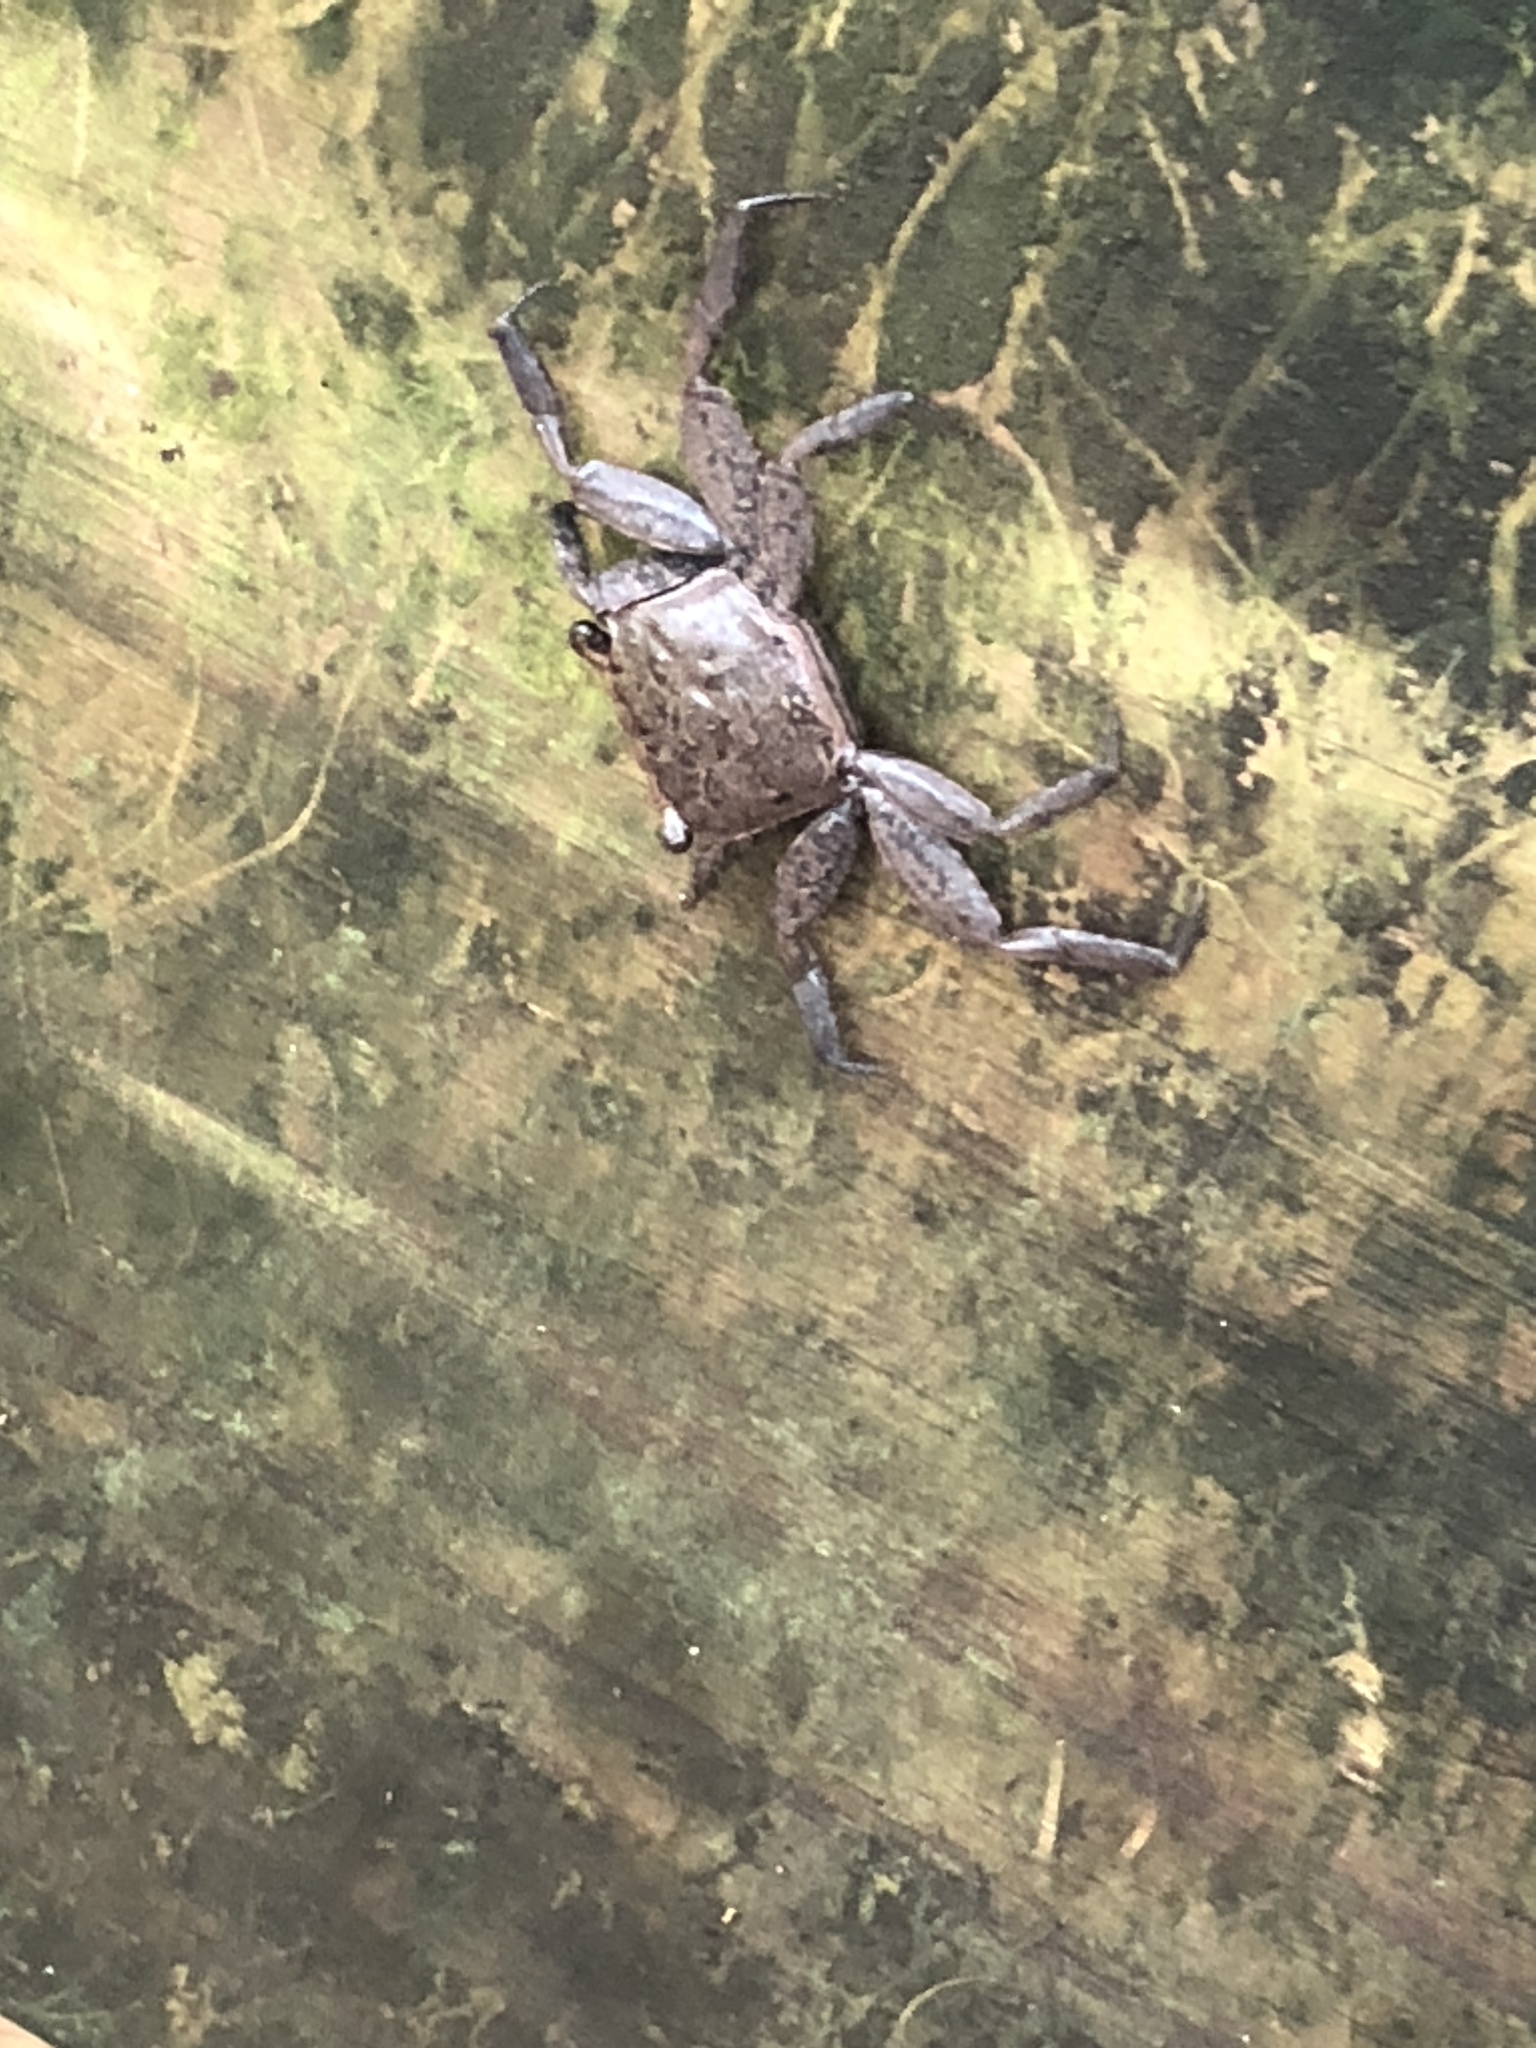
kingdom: Animalia
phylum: Arthropoda
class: Malacostraca
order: Decapoda
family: Sesarmidae
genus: Armases
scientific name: Armases cinereum
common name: Squareback marsh crab
